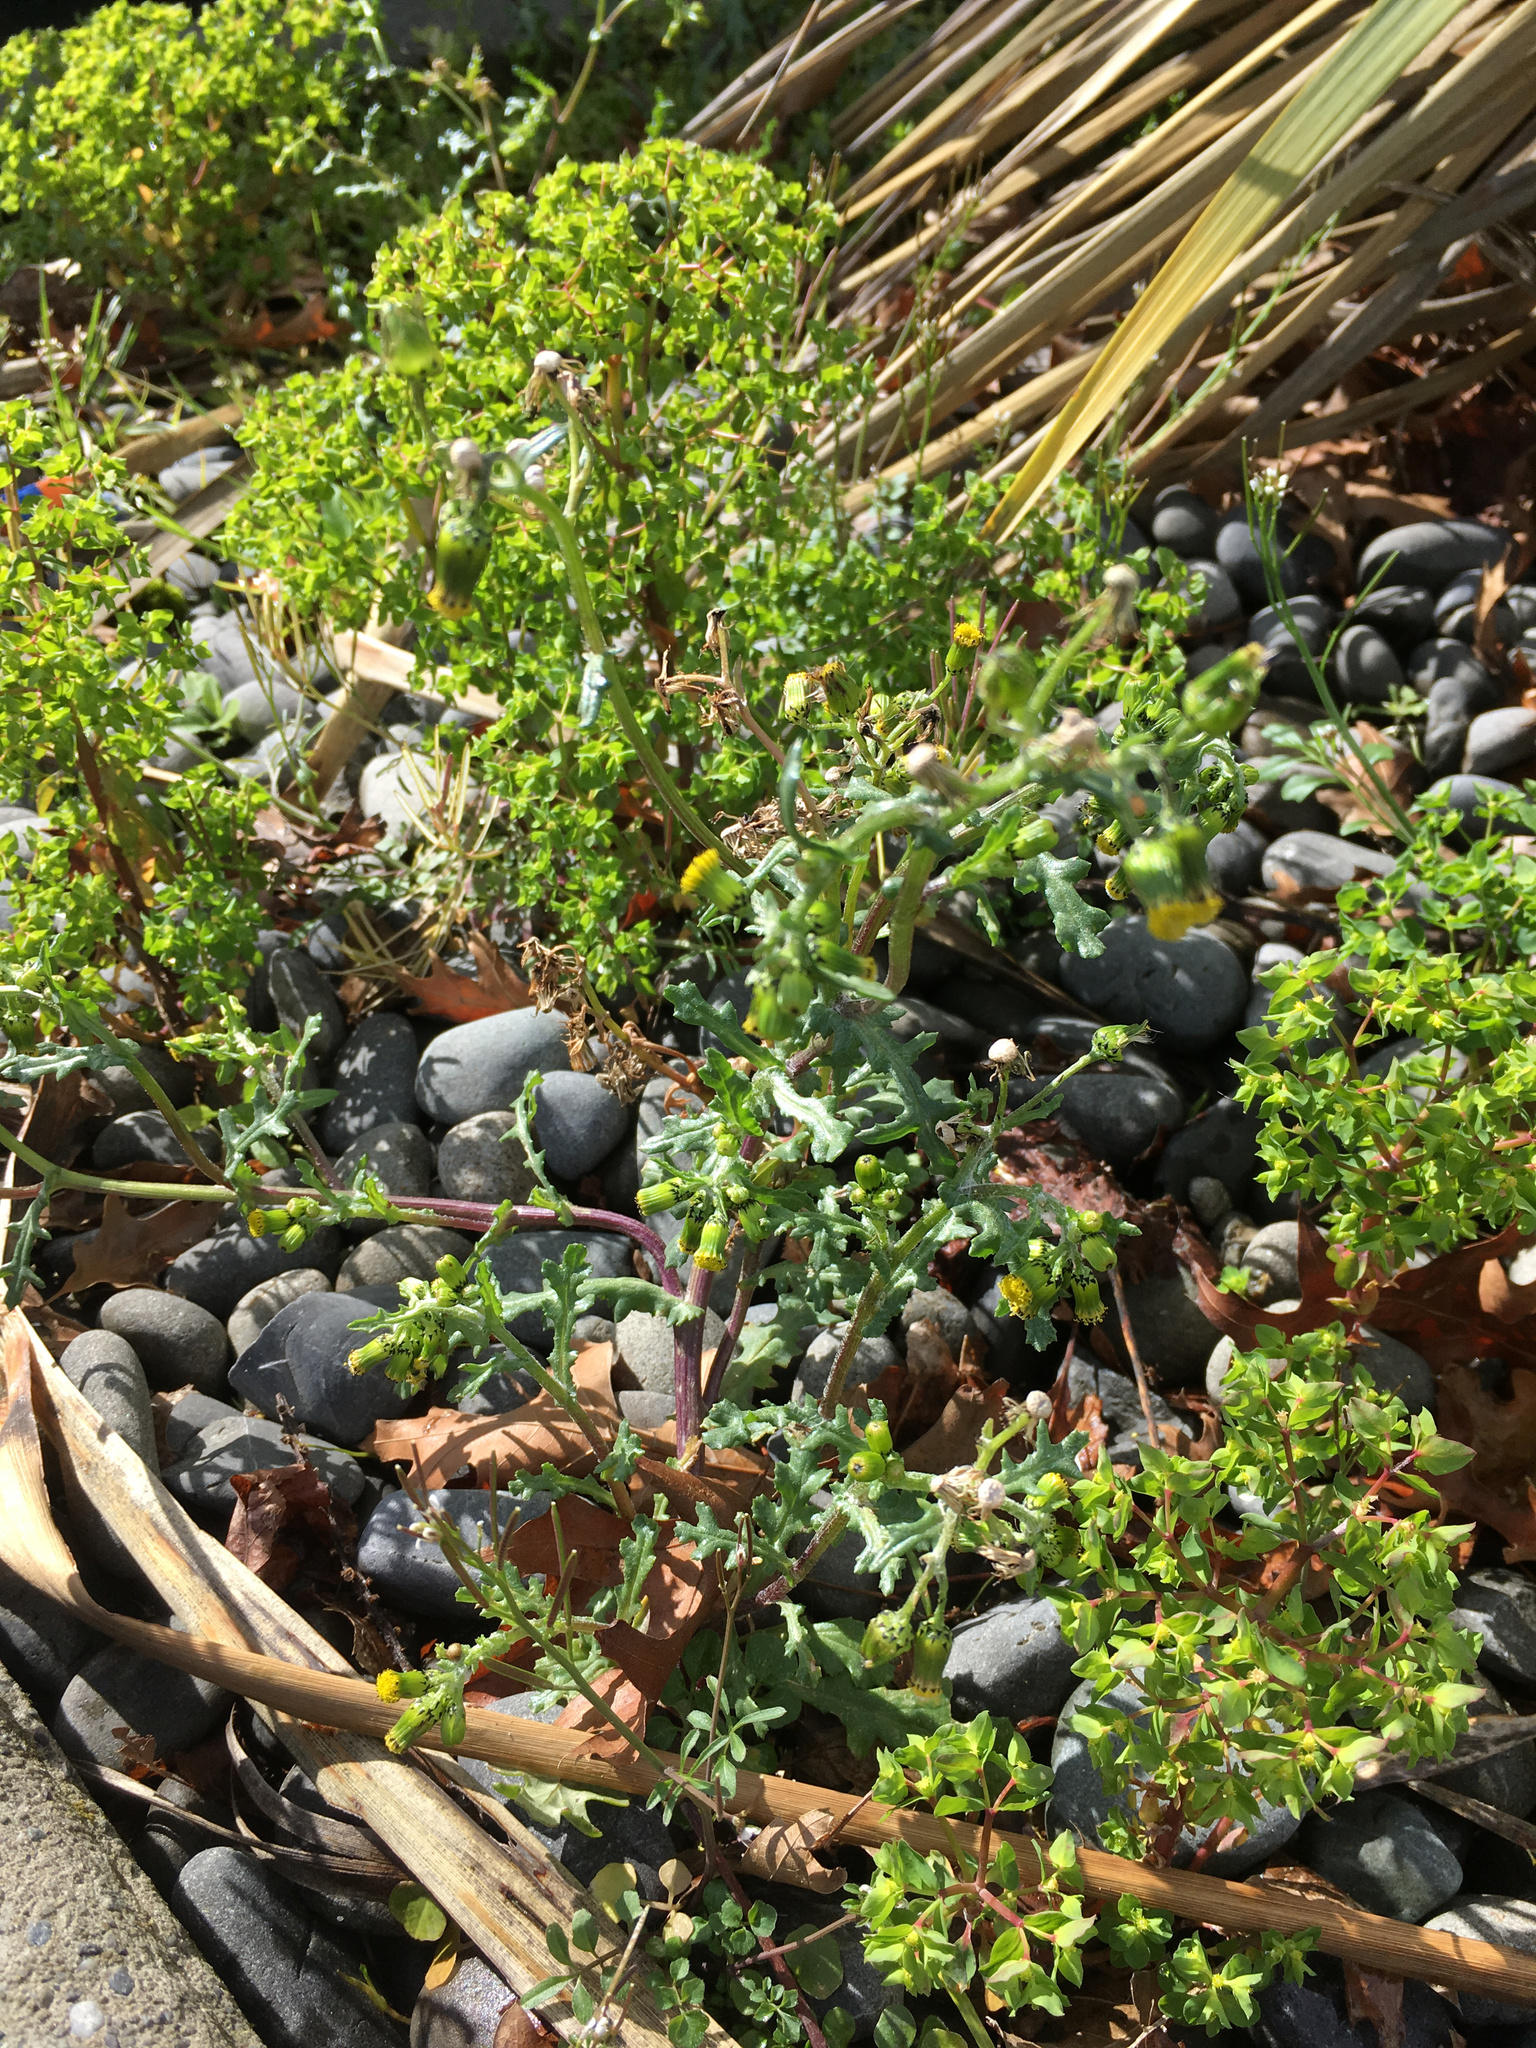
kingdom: Plantae
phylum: Tracheophyta
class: Magnoliopsida
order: Asterales
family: Asteraceae
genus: Senecio
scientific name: Senecio vulgaris
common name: Old-man-in-the-spring
